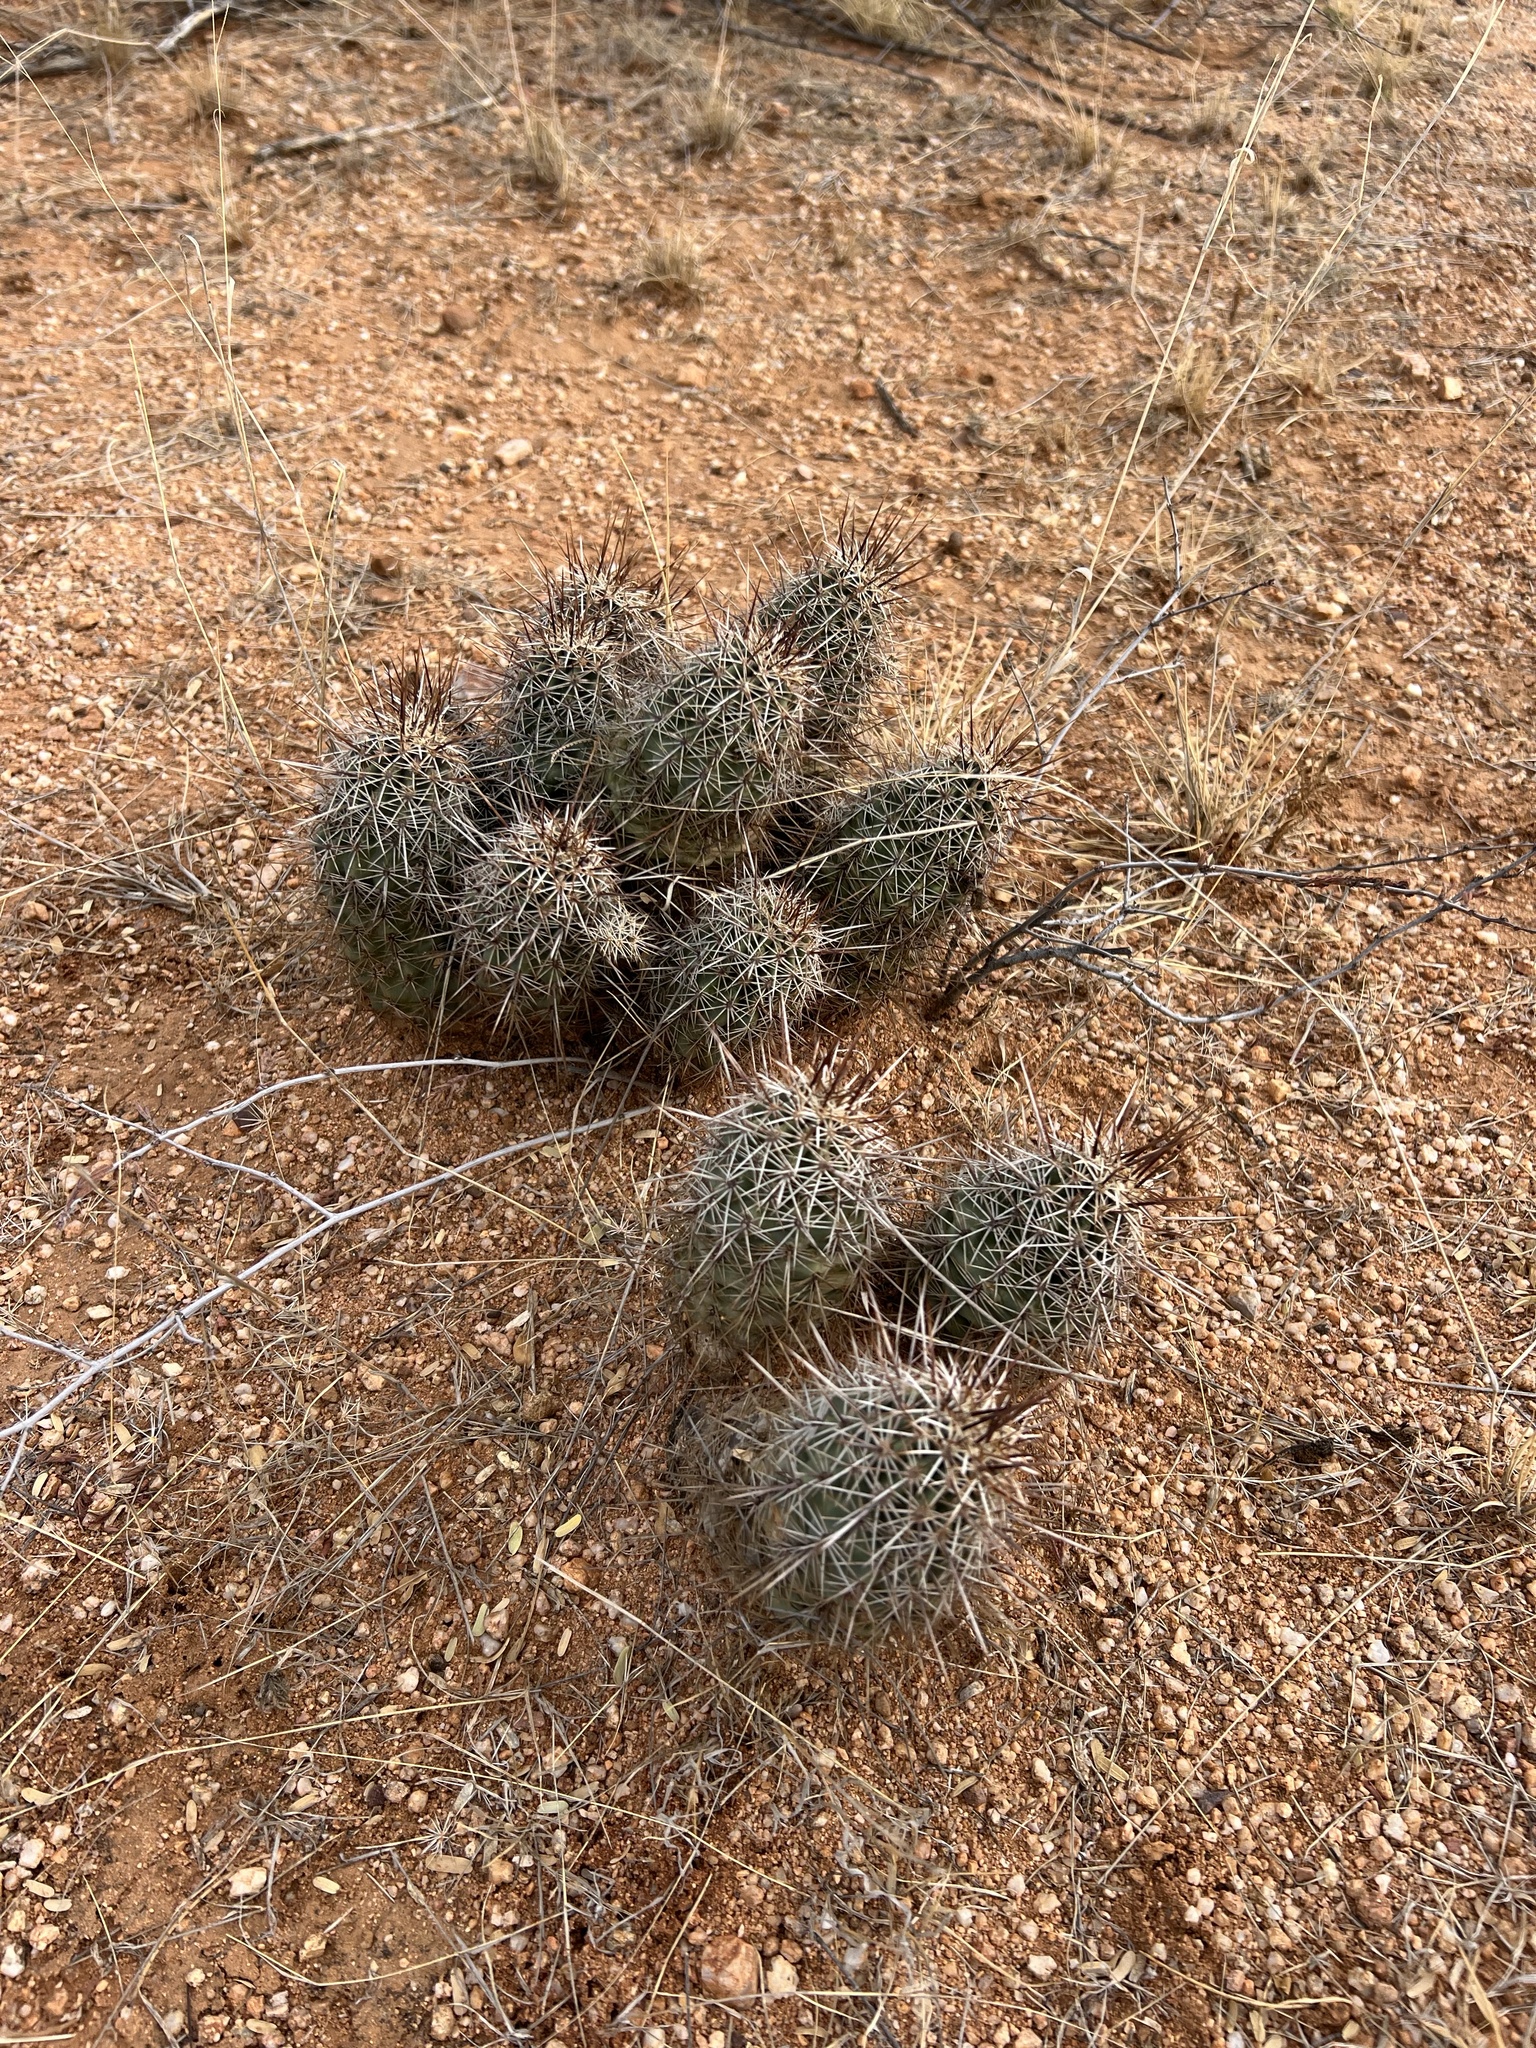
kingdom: Plantae
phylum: Tracheophyta
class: Magnoliopsida
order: Caryophyllales
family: Cactaceae
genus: Echinocereus
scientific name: Echinocereus fasciculatus
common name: Bundle hedgehog
